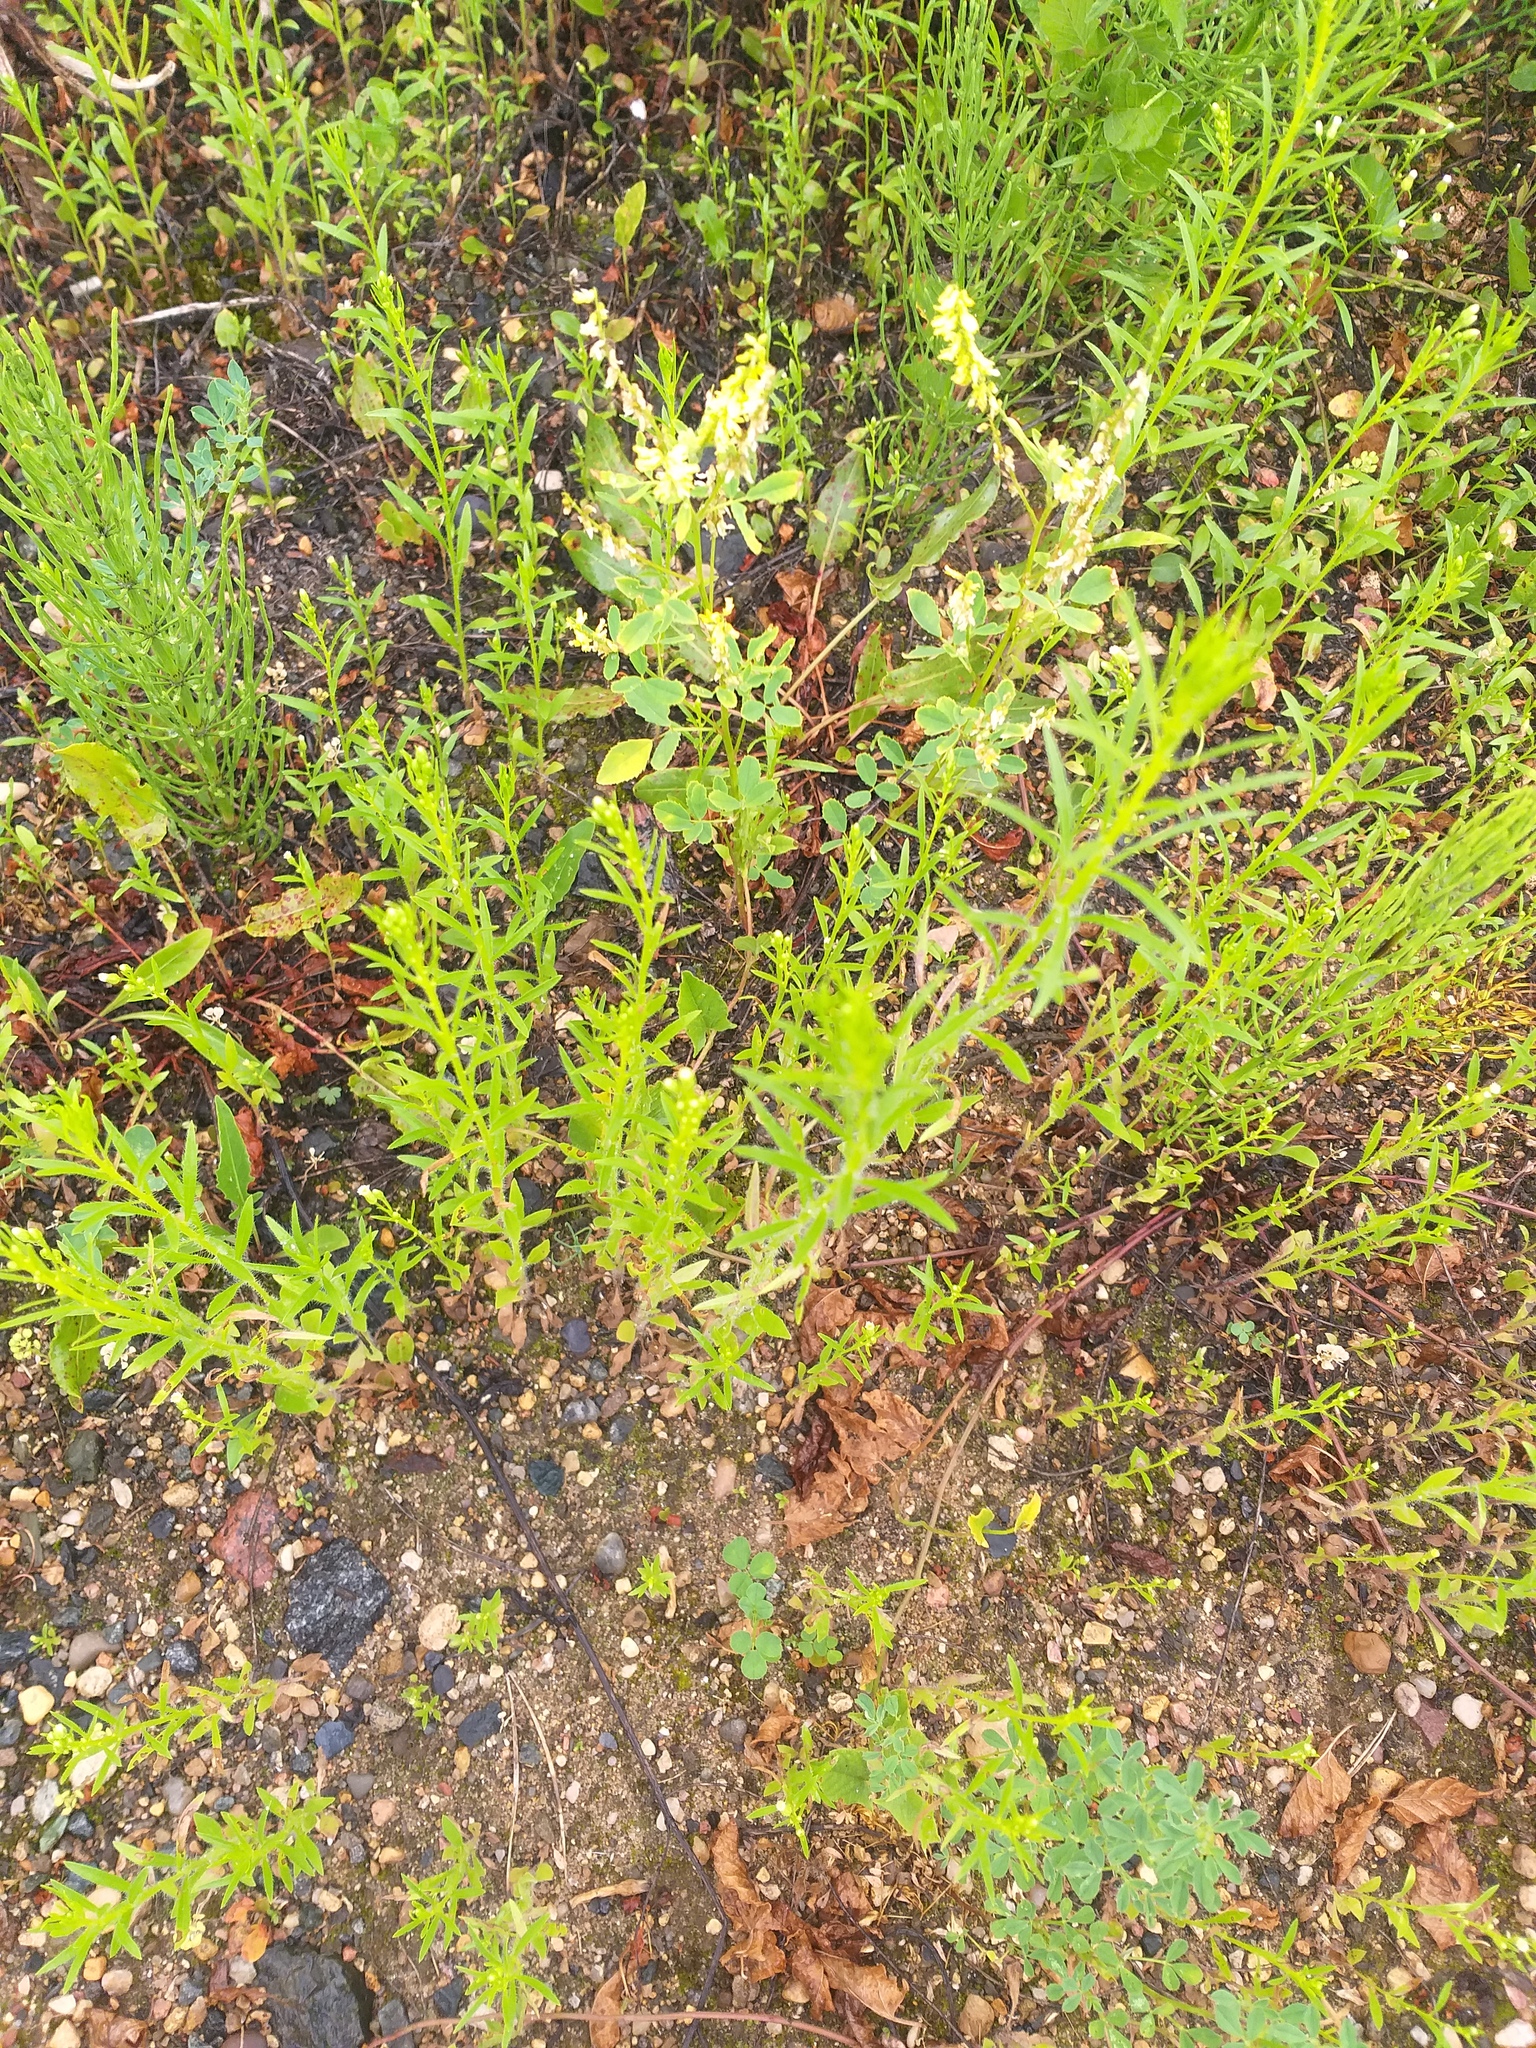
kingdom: Plantae
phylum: Tracheophyta
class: Magnoliopsida
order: Asterales
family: Asteraceae
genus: Erigeron
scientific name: Erigeron canadensis
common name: Canadian fleabane
